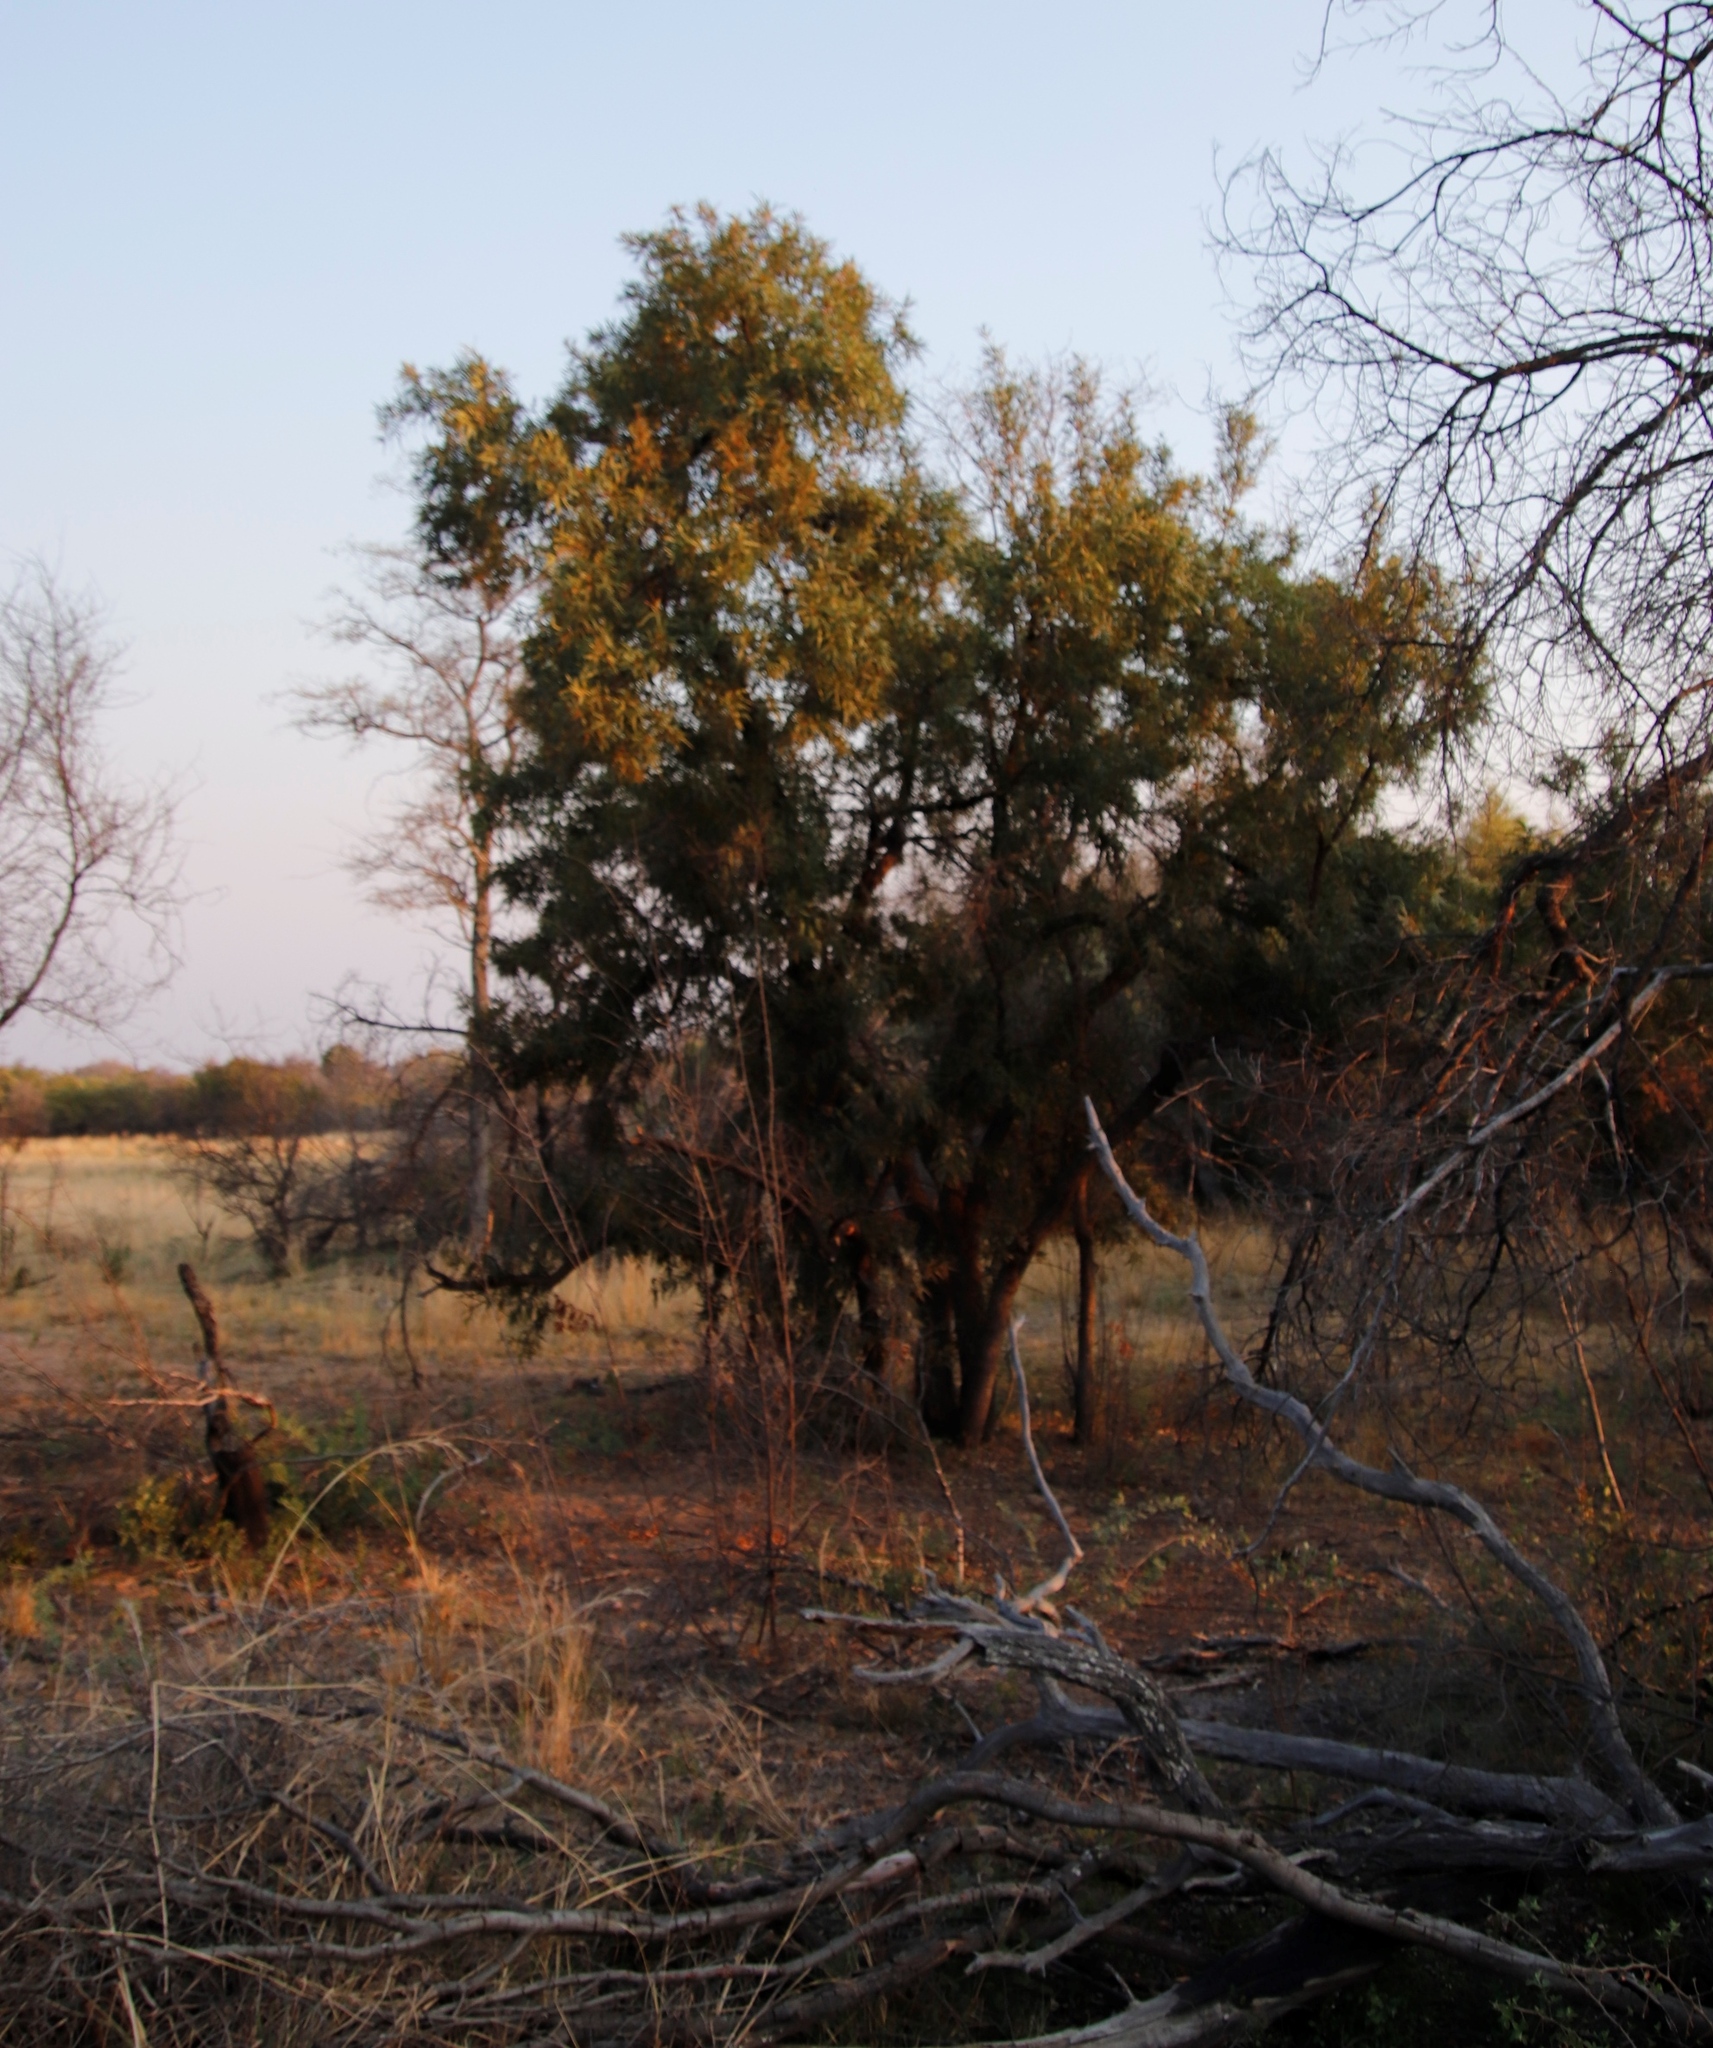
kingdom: Plantae
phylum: Tracheophyta
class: Magnoliopsida
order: Sapindales
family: Anacardiaceae
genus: Searsia
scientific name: Searsia lancea
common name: Cashew
